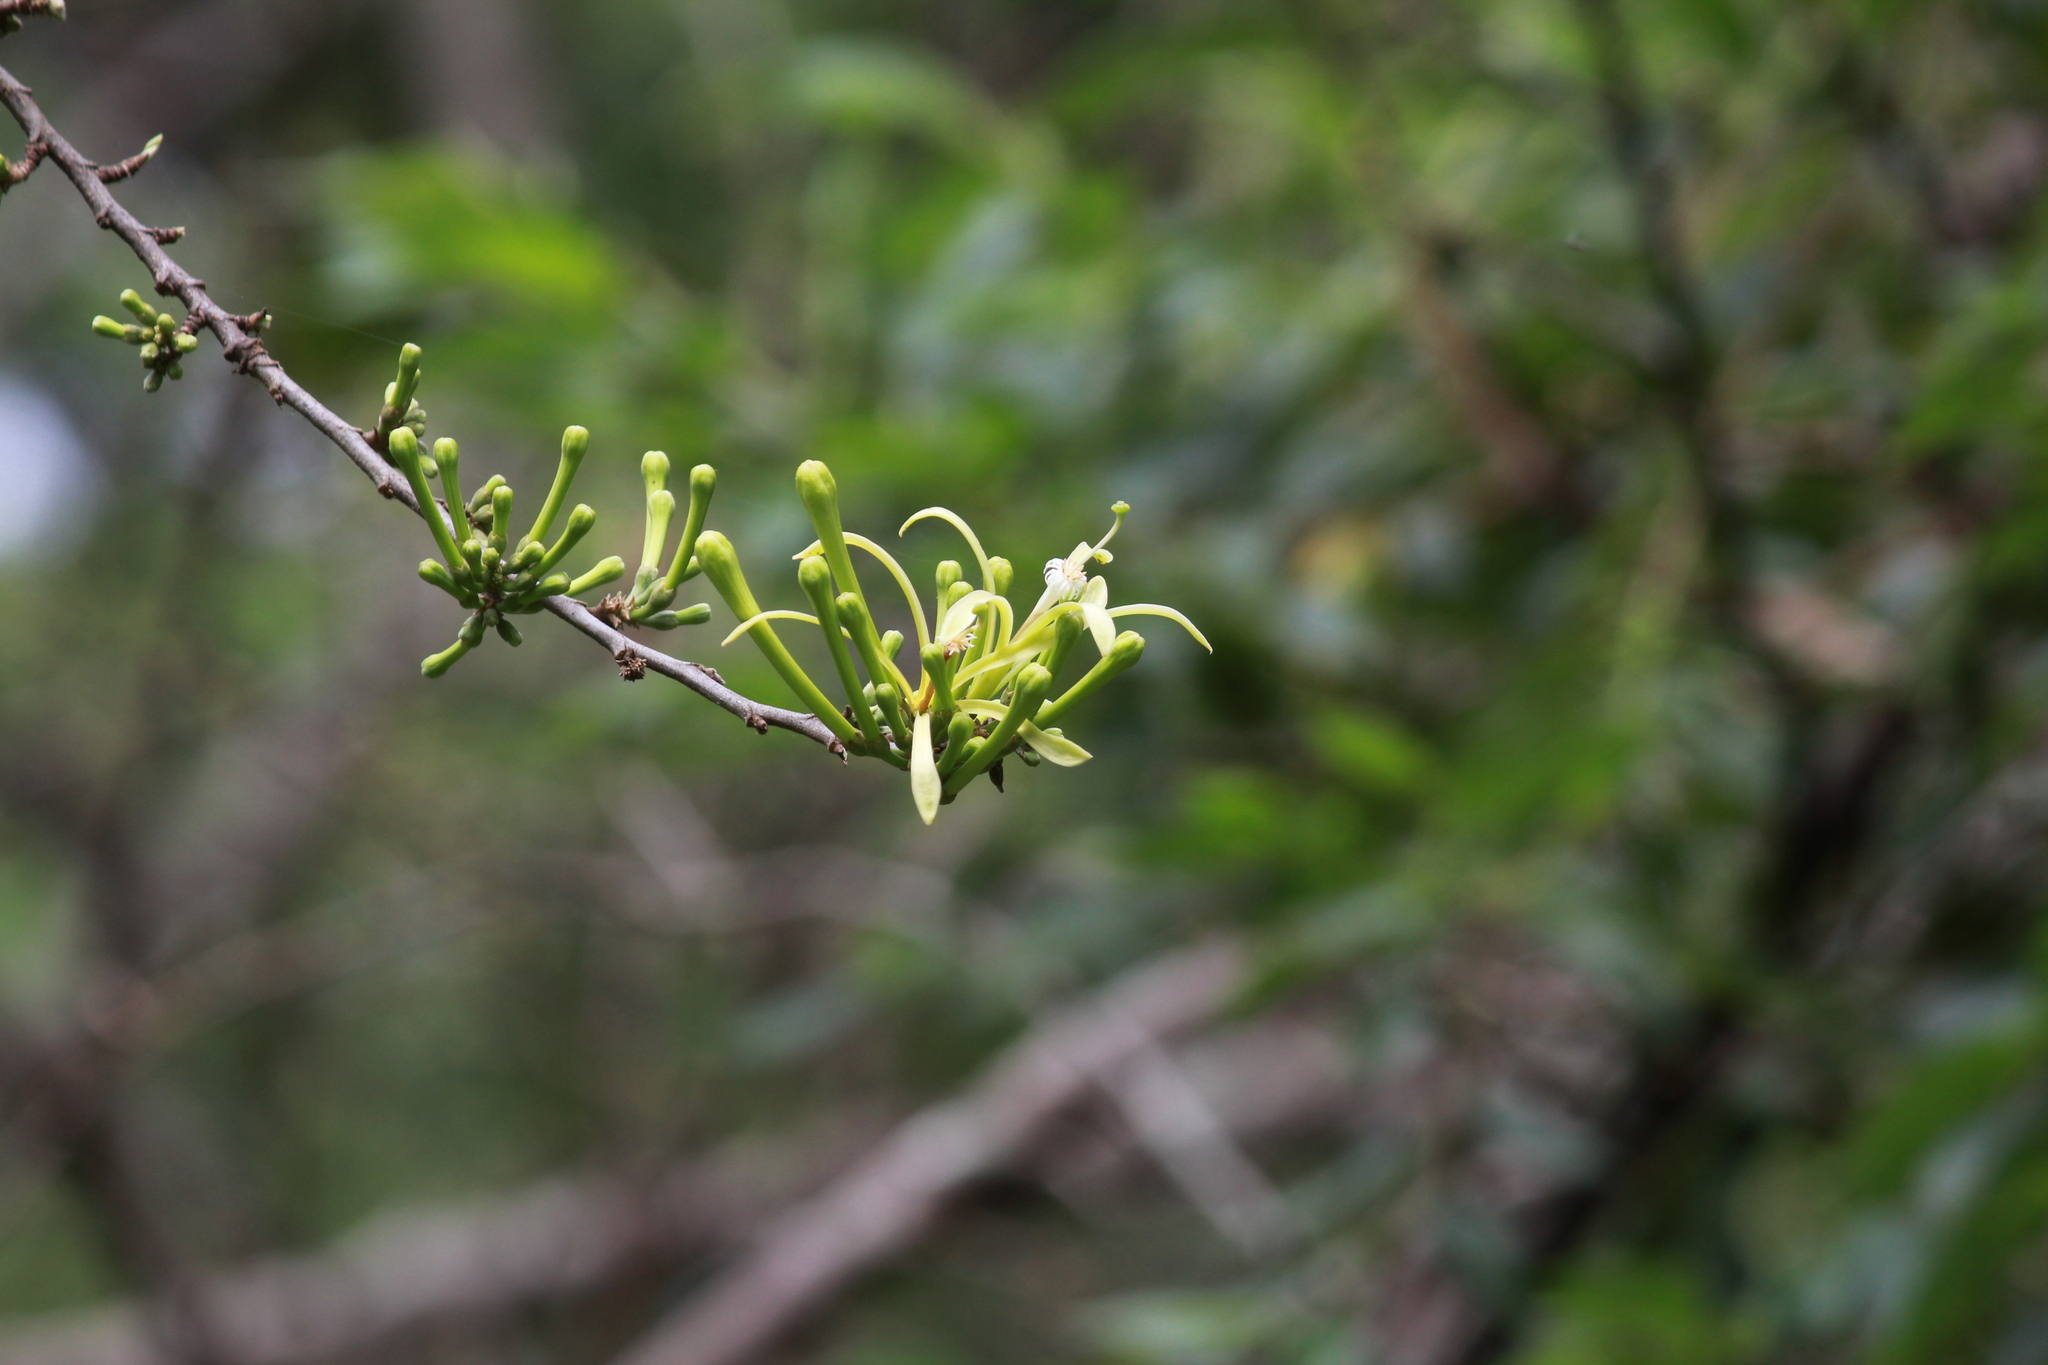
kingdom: Plantae
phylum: Tracheophyta
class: Magnoliopsida
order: Sapindales
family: Meliaceae
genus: Turraea
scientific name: Turraea floribunda
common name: Honeysuckle tree
